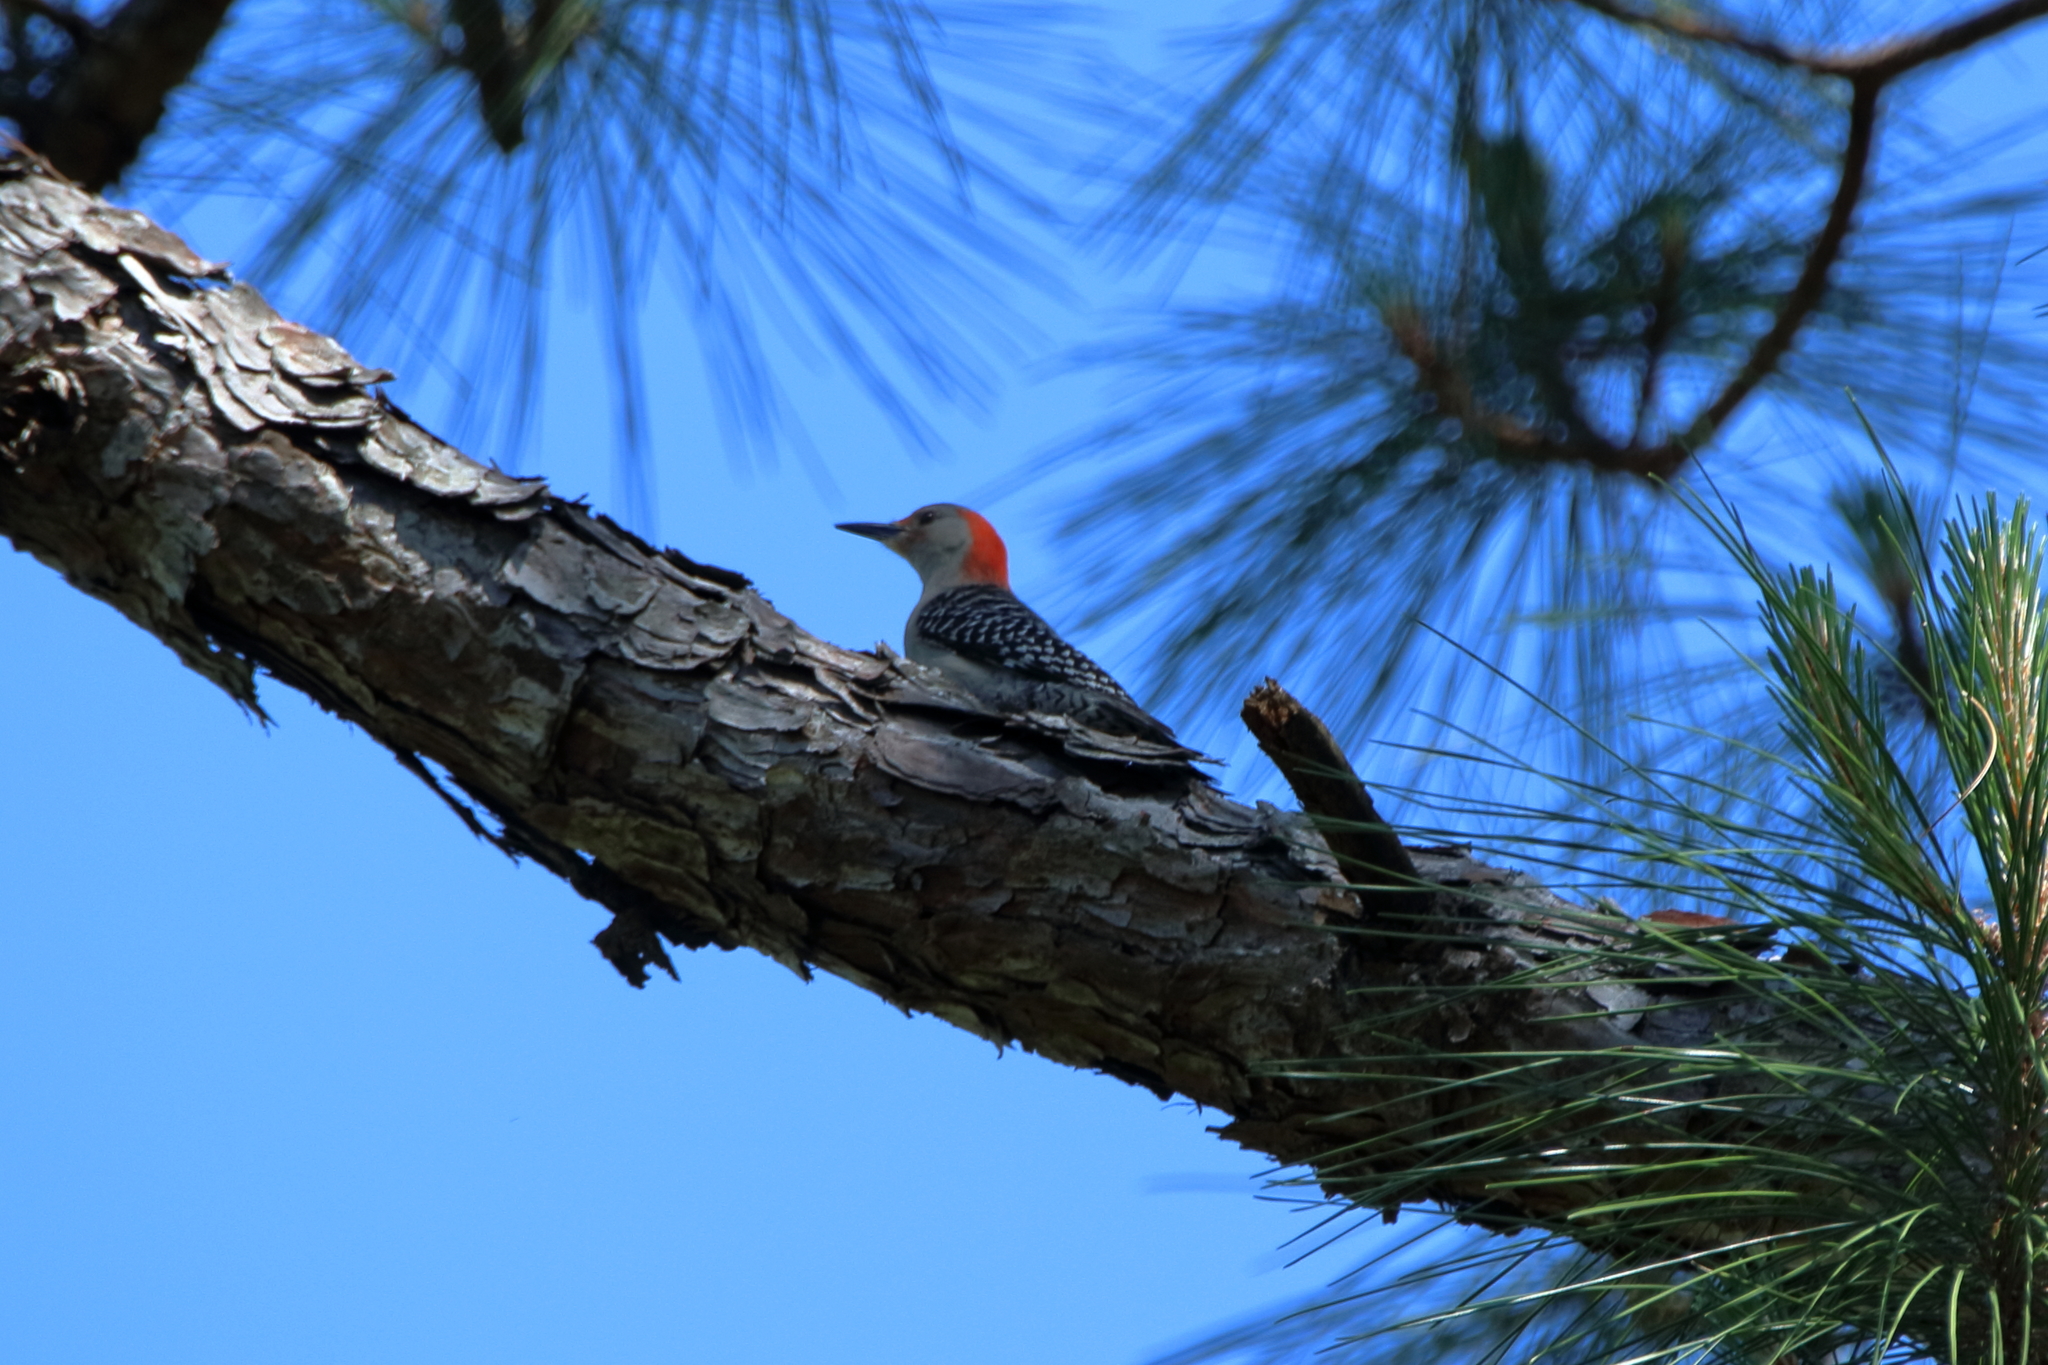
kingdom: Animalia
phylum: Chordata
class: Aves
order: Piciformes
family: Picidae
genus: Melanerpes
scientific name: Melanerpes carolinus
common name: Red-bellied woodpecker
